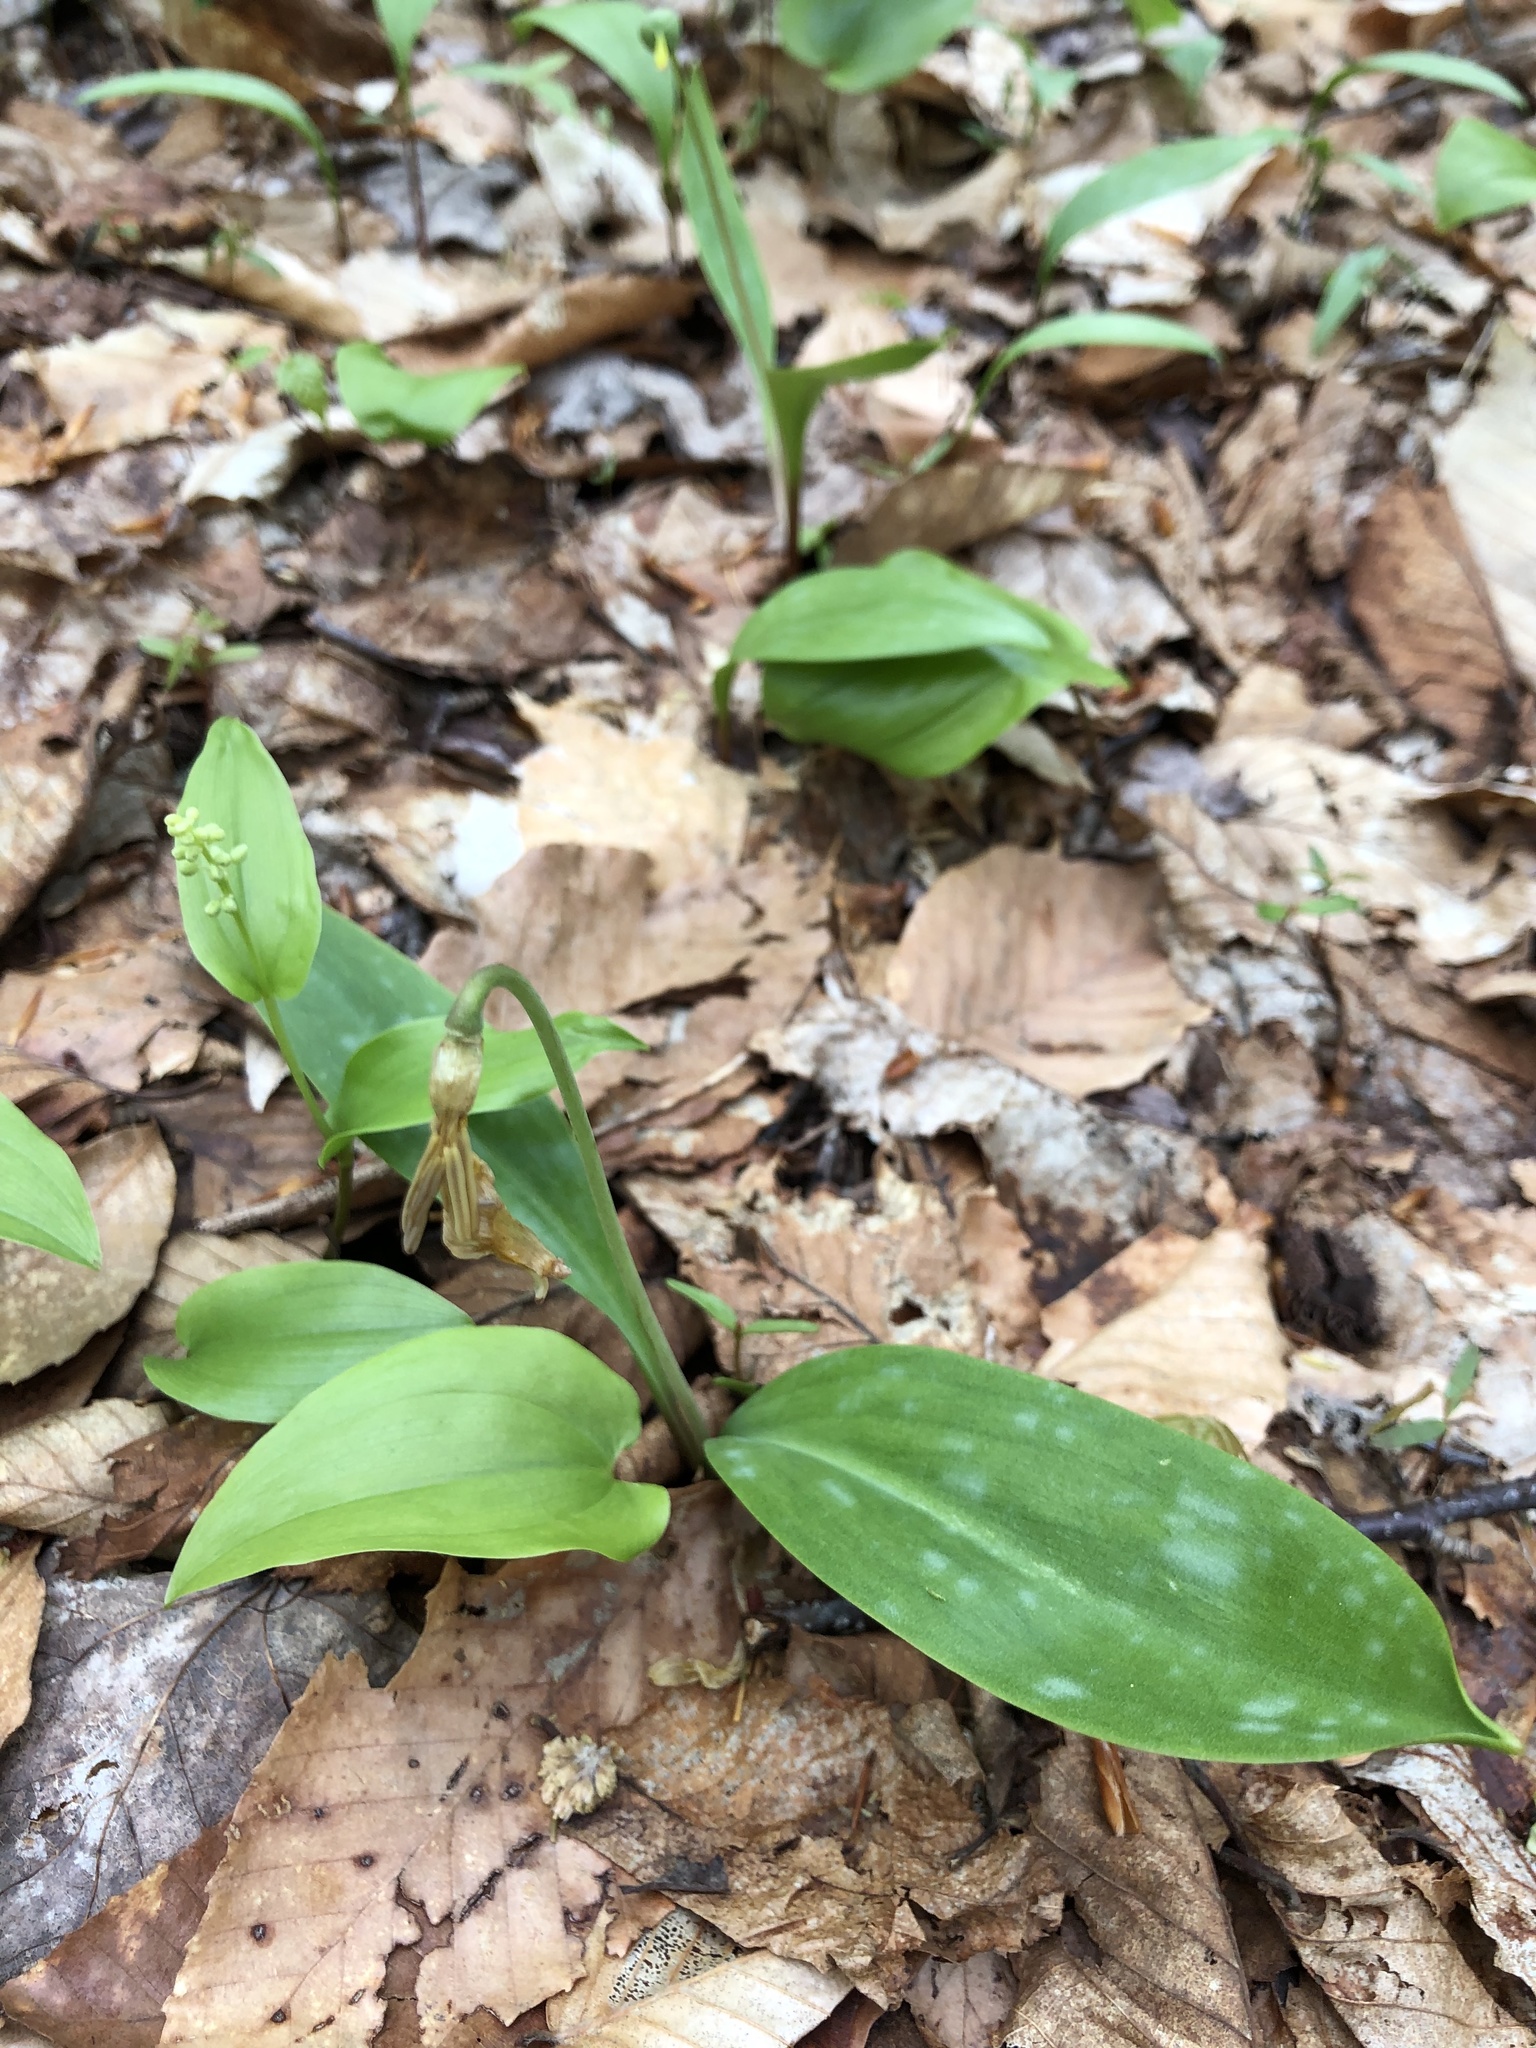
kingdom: Plantae
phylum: Tracheophyta
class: Liliopsida
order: Liliales
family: Liliaceae
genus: Erythronium
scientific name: Erythronium americanum
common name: Yellow adder's-tongue
